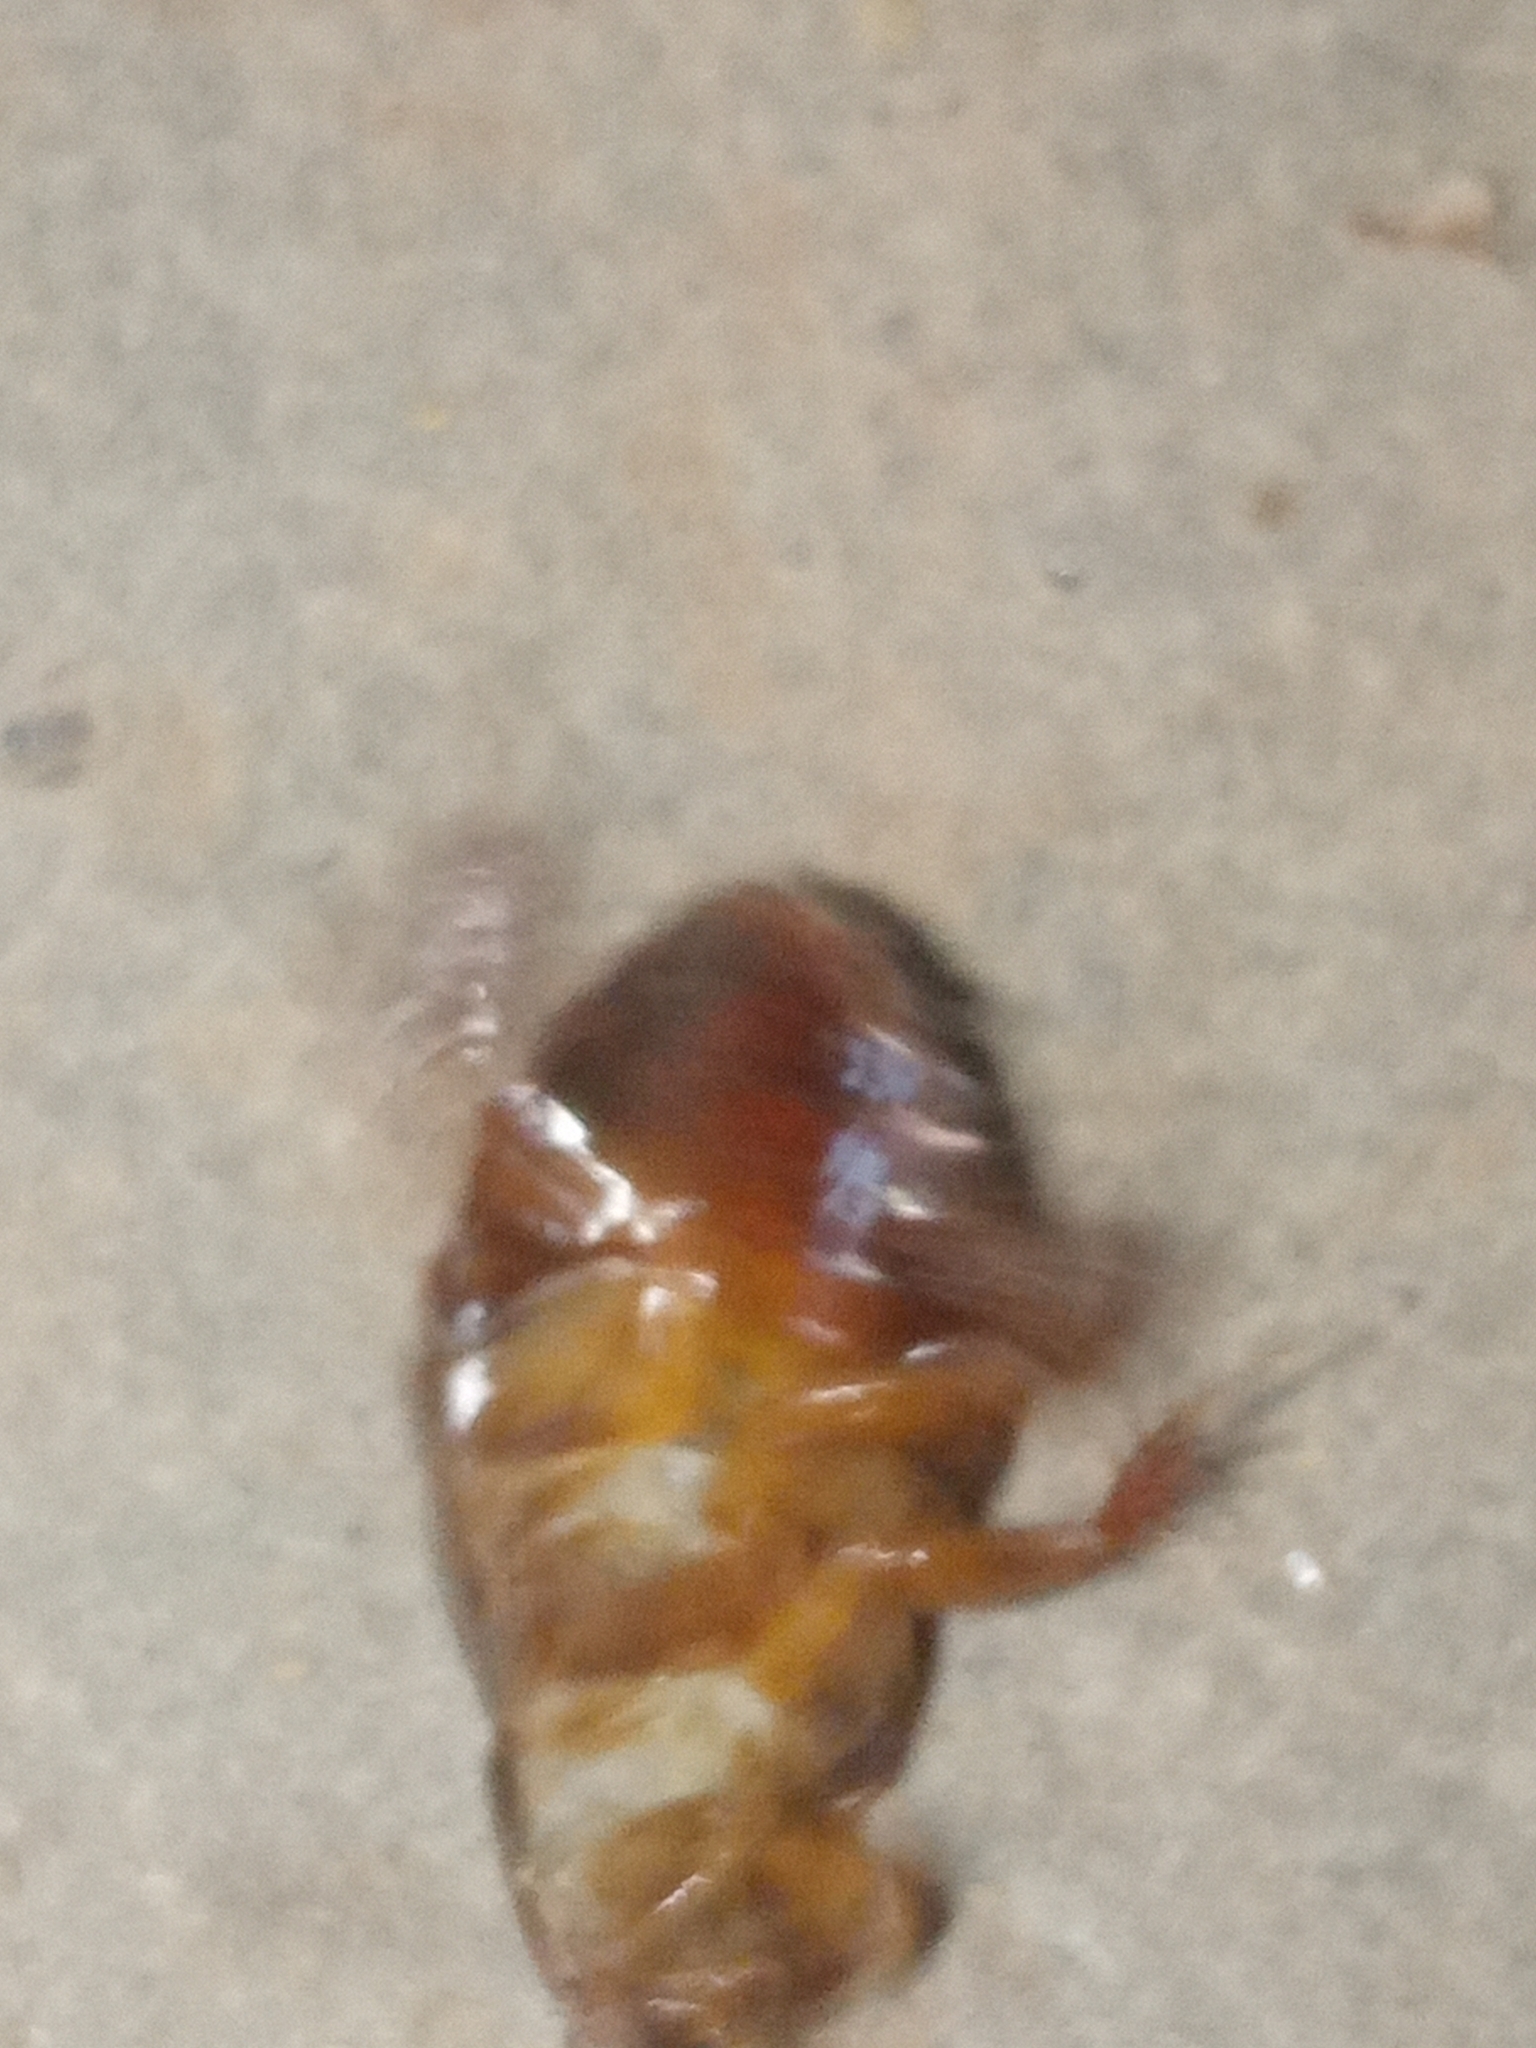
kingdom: Animalia
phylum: Arthropoda
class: Insecta
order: Blattodea
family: Blaberidae
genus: Pycnoscelus
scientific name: Pycnoscelus surinamensis
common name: Surinam cockroach
